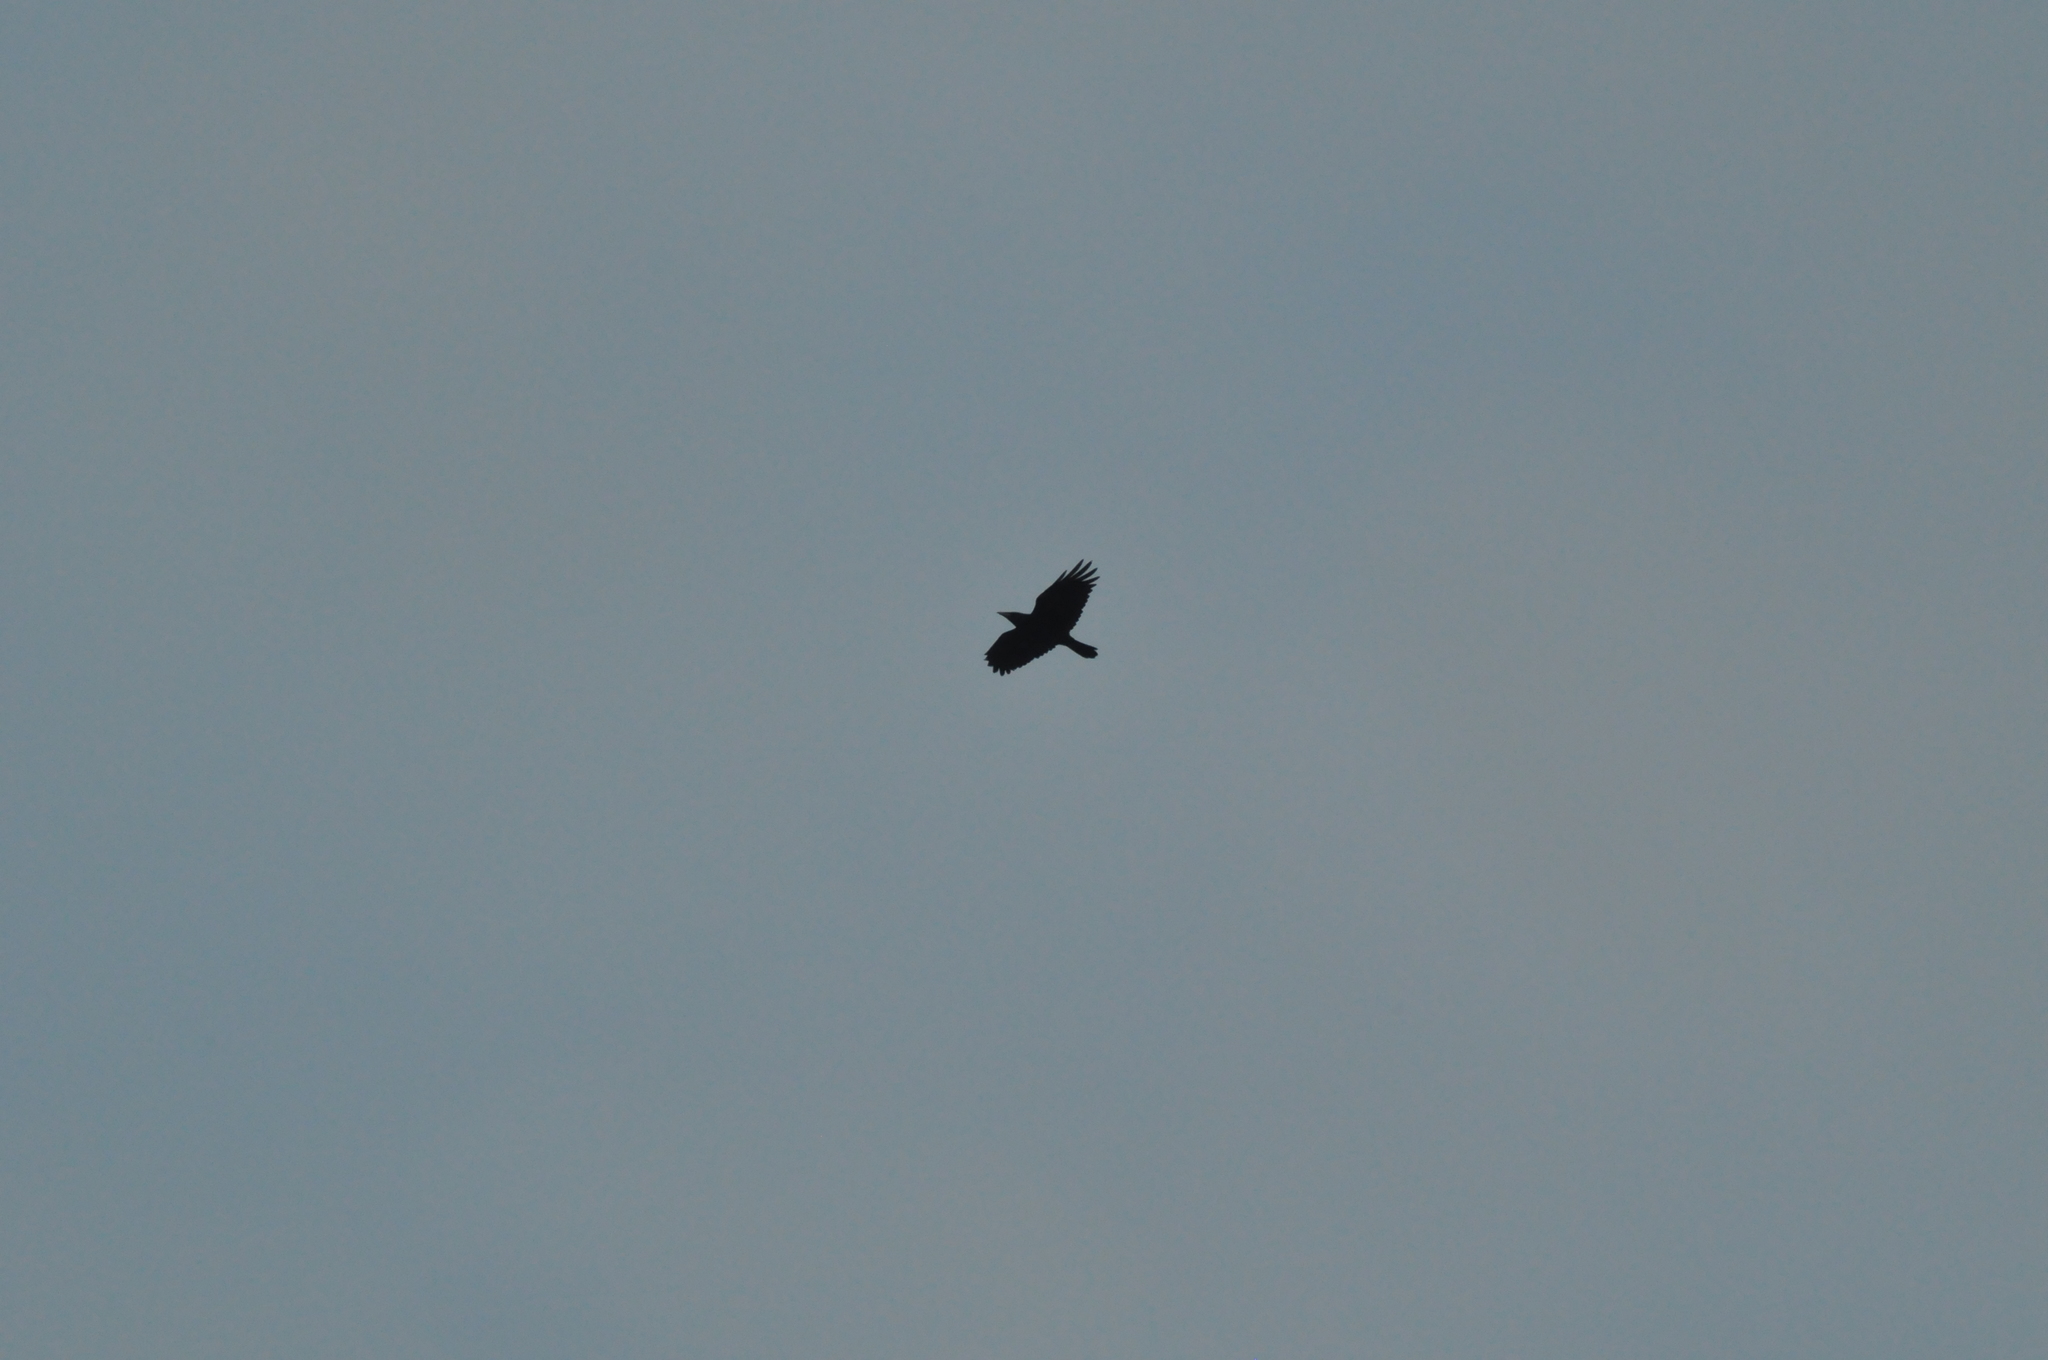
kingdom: Animalia
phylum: Chordata
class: Aves
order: Passeriformes
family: Corvidae
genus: Corvus
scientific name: Corvus corone
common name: Carrion crow
